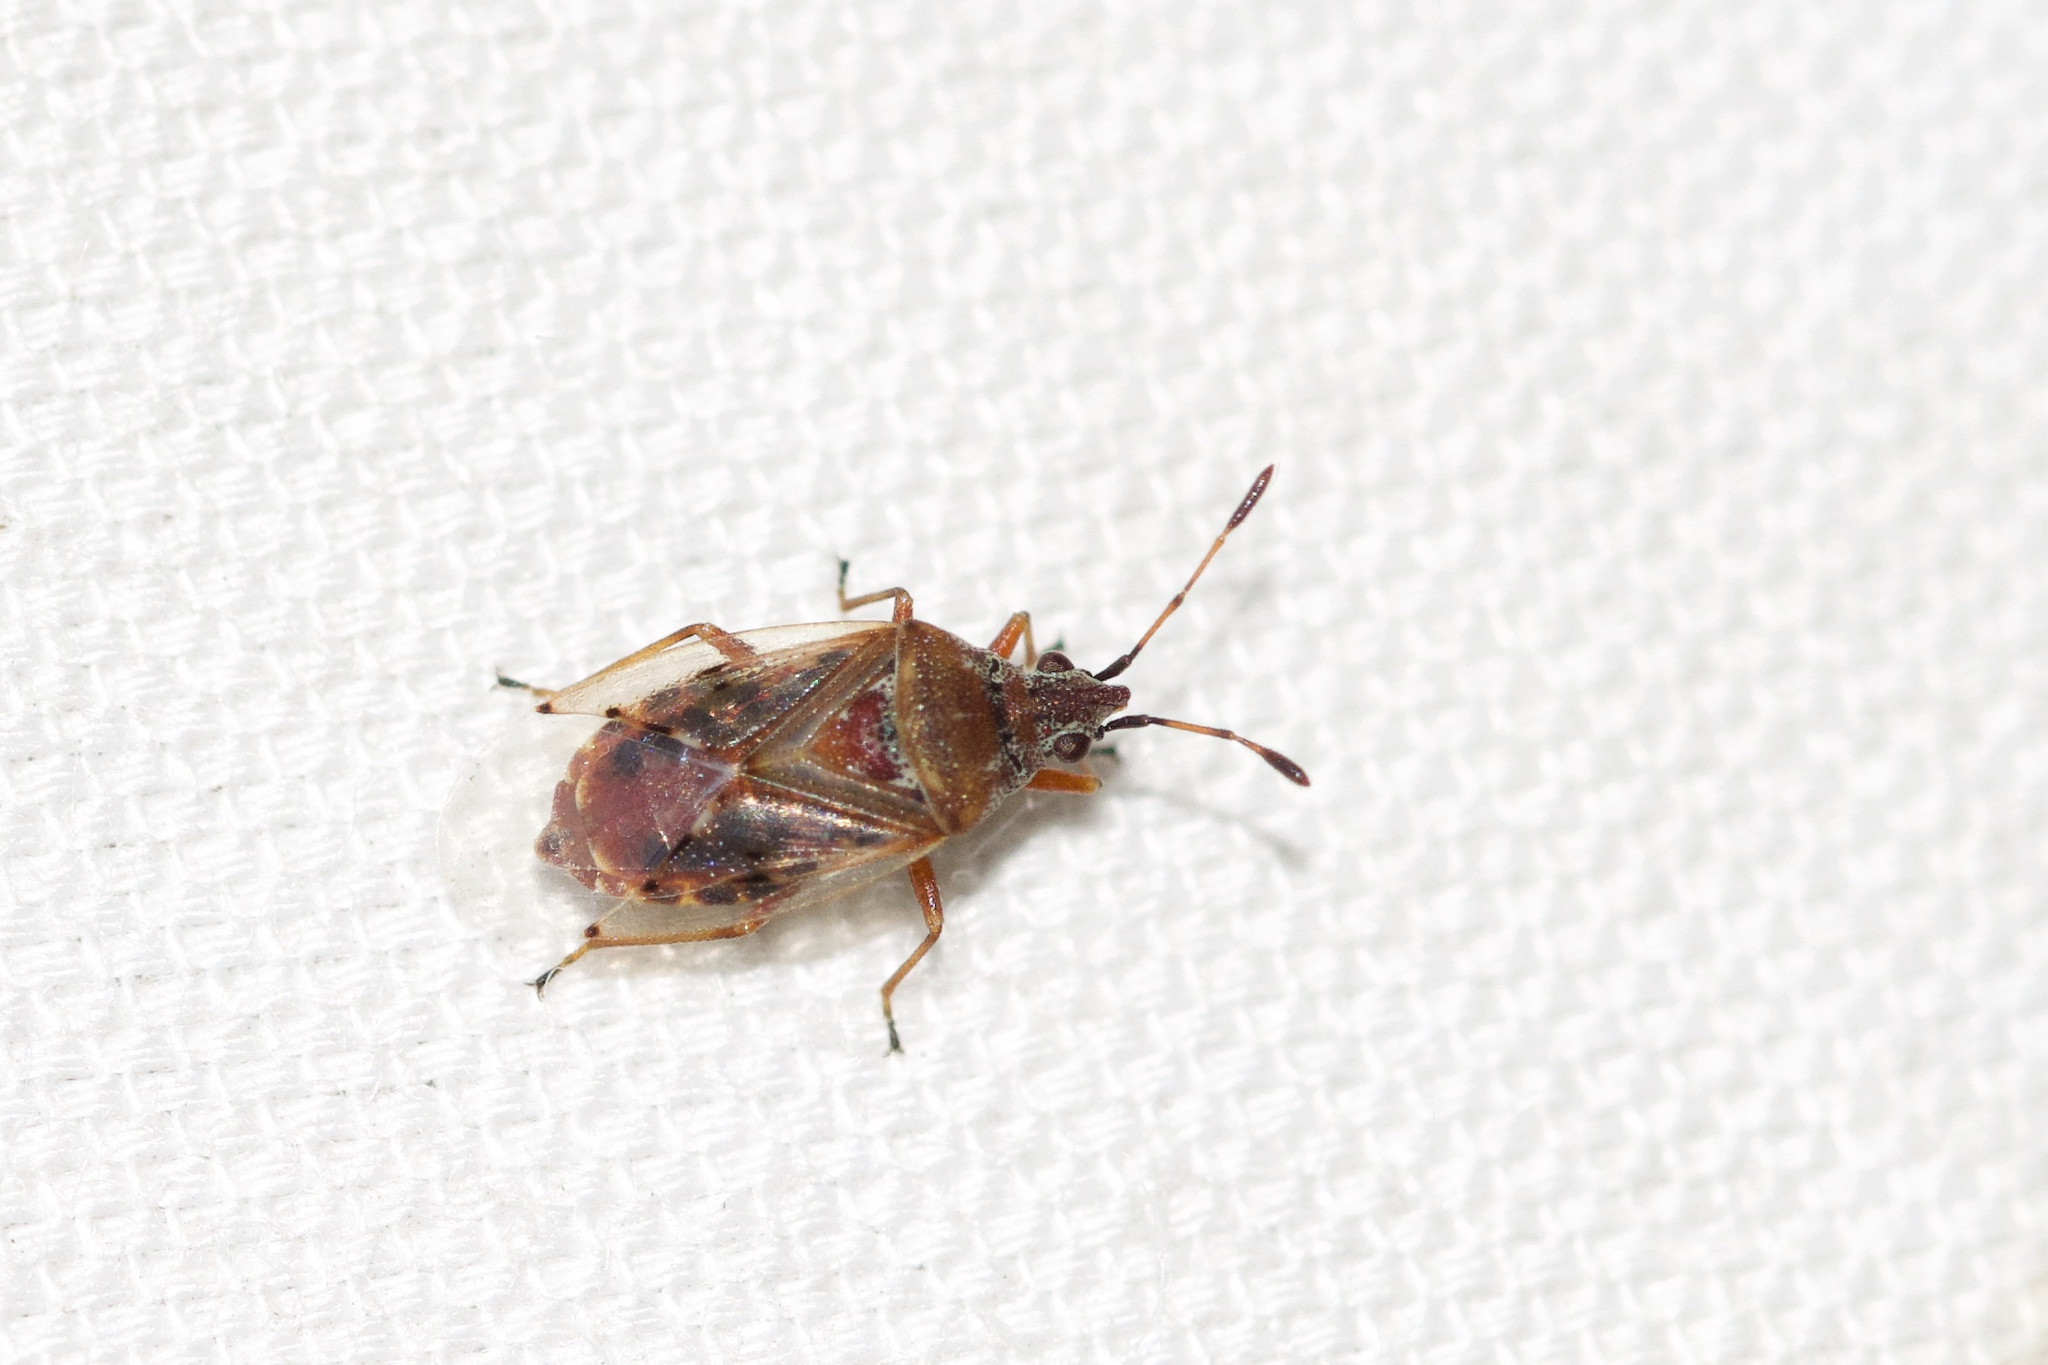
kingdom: Animalia
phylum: Arthropoda
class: Insecta
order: Hemiptera
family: Lygaeidae
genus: Kleidocerys
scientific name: Kleidocerys resedae
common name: Birch catkin bug
